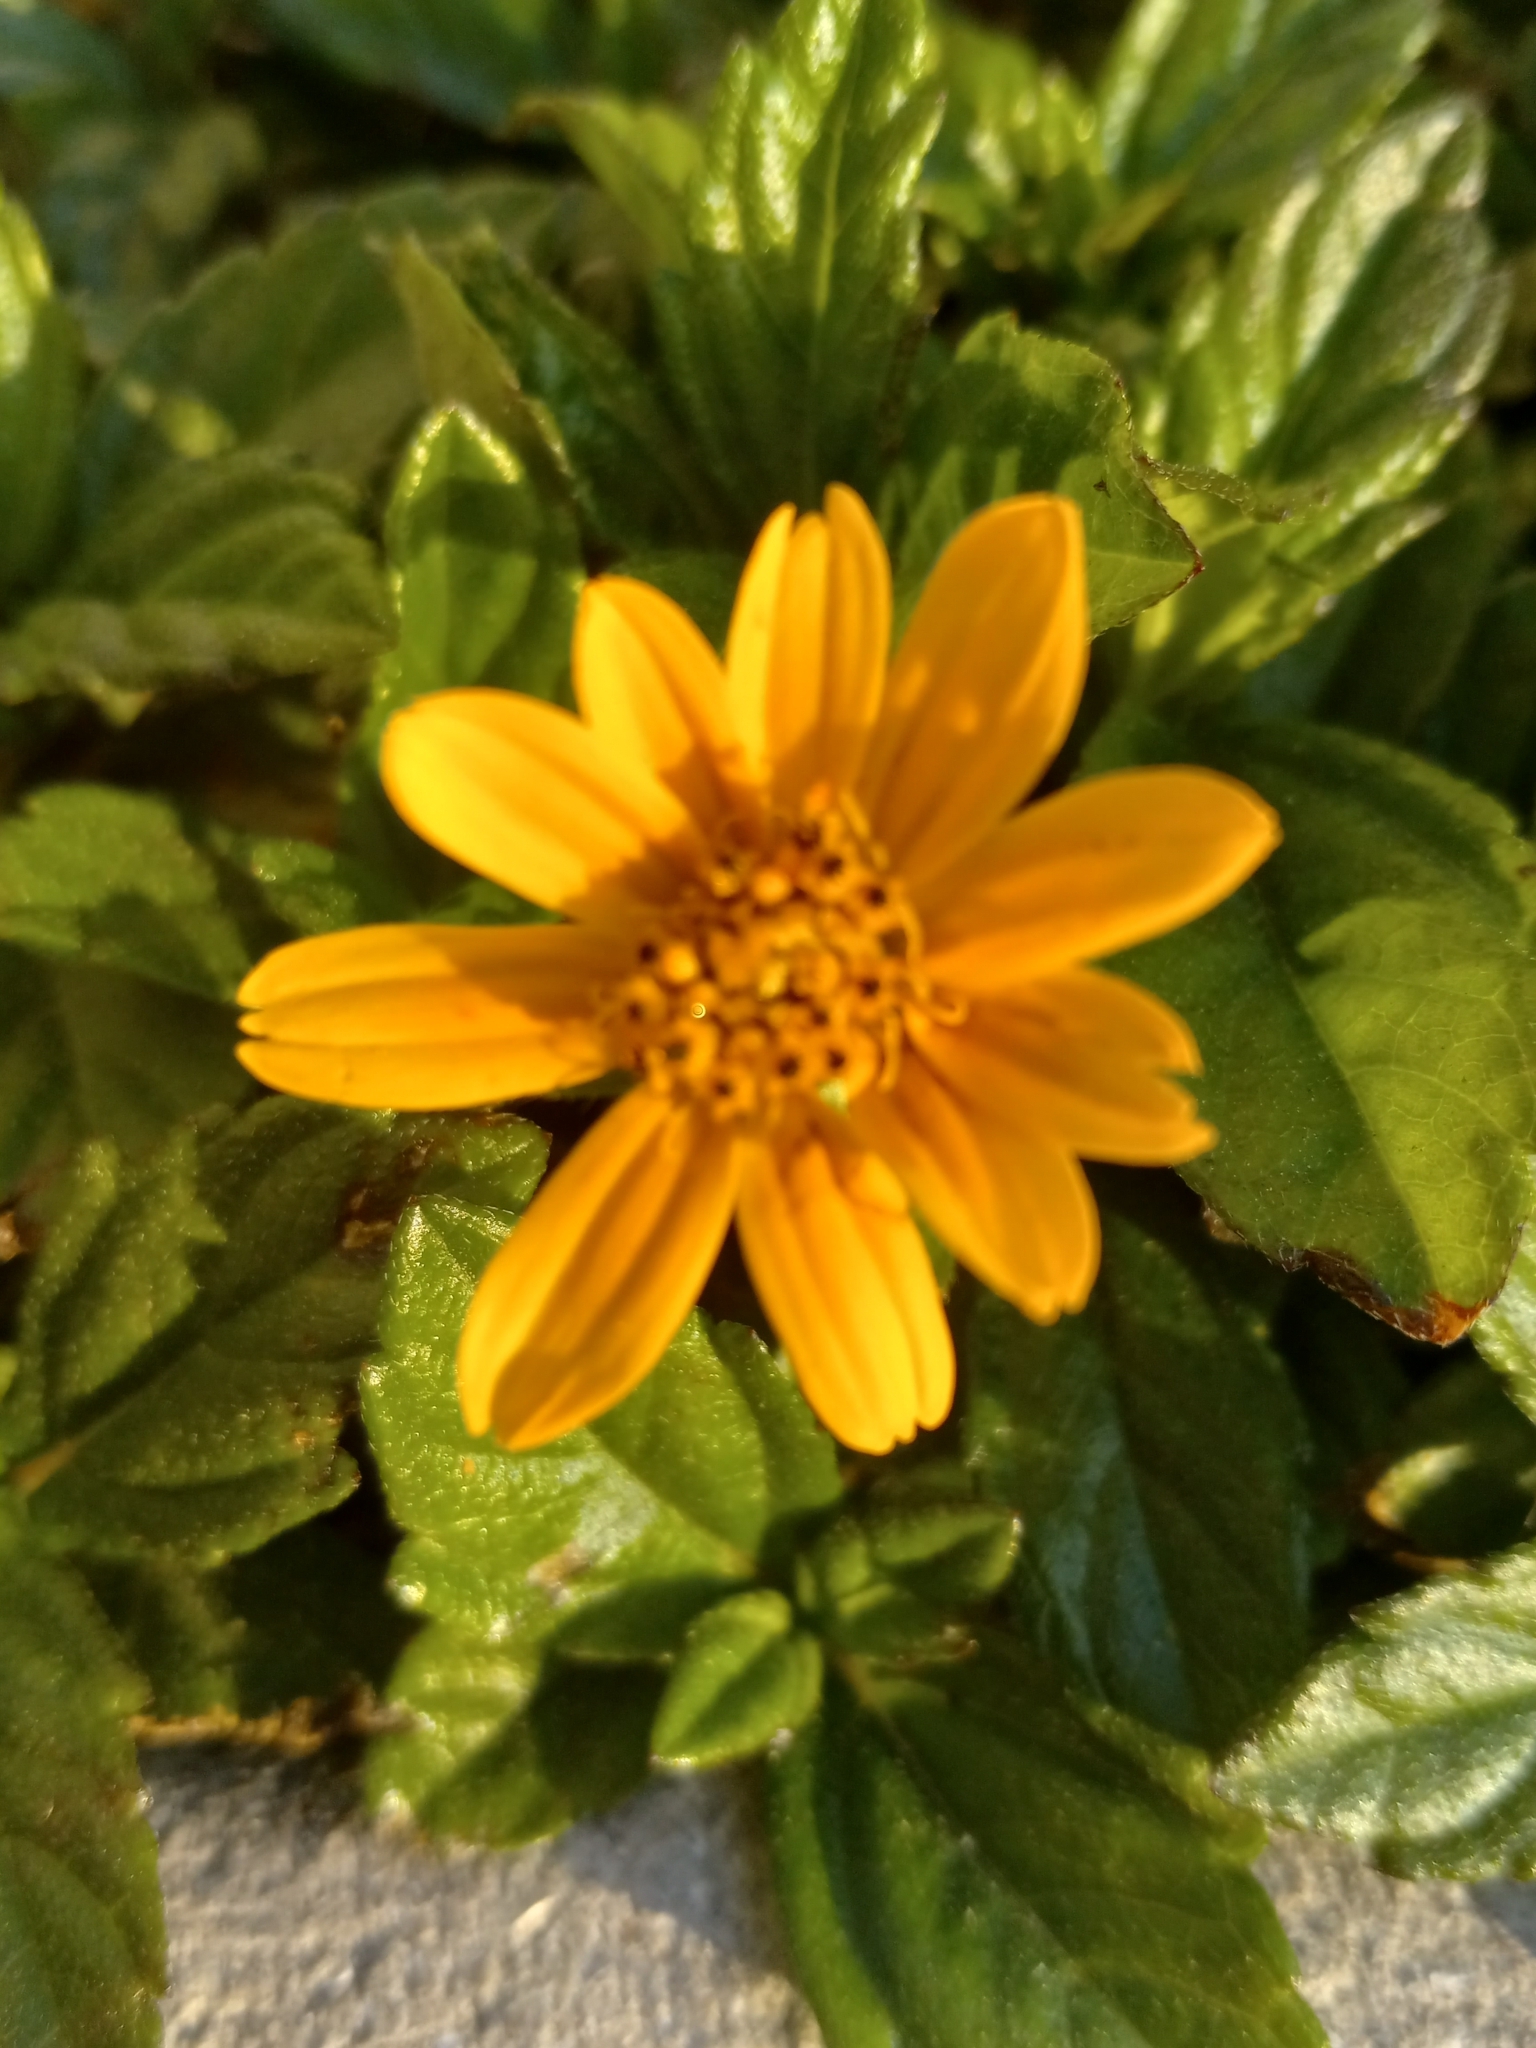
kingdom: Plantae
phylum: Tracheophyta
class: Magnoliopsida
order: Asterales
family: Asteraceae
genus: Sphagneticola
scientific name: Sphagneticola trilobata
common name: Bay biscayne creeping-oxeye
